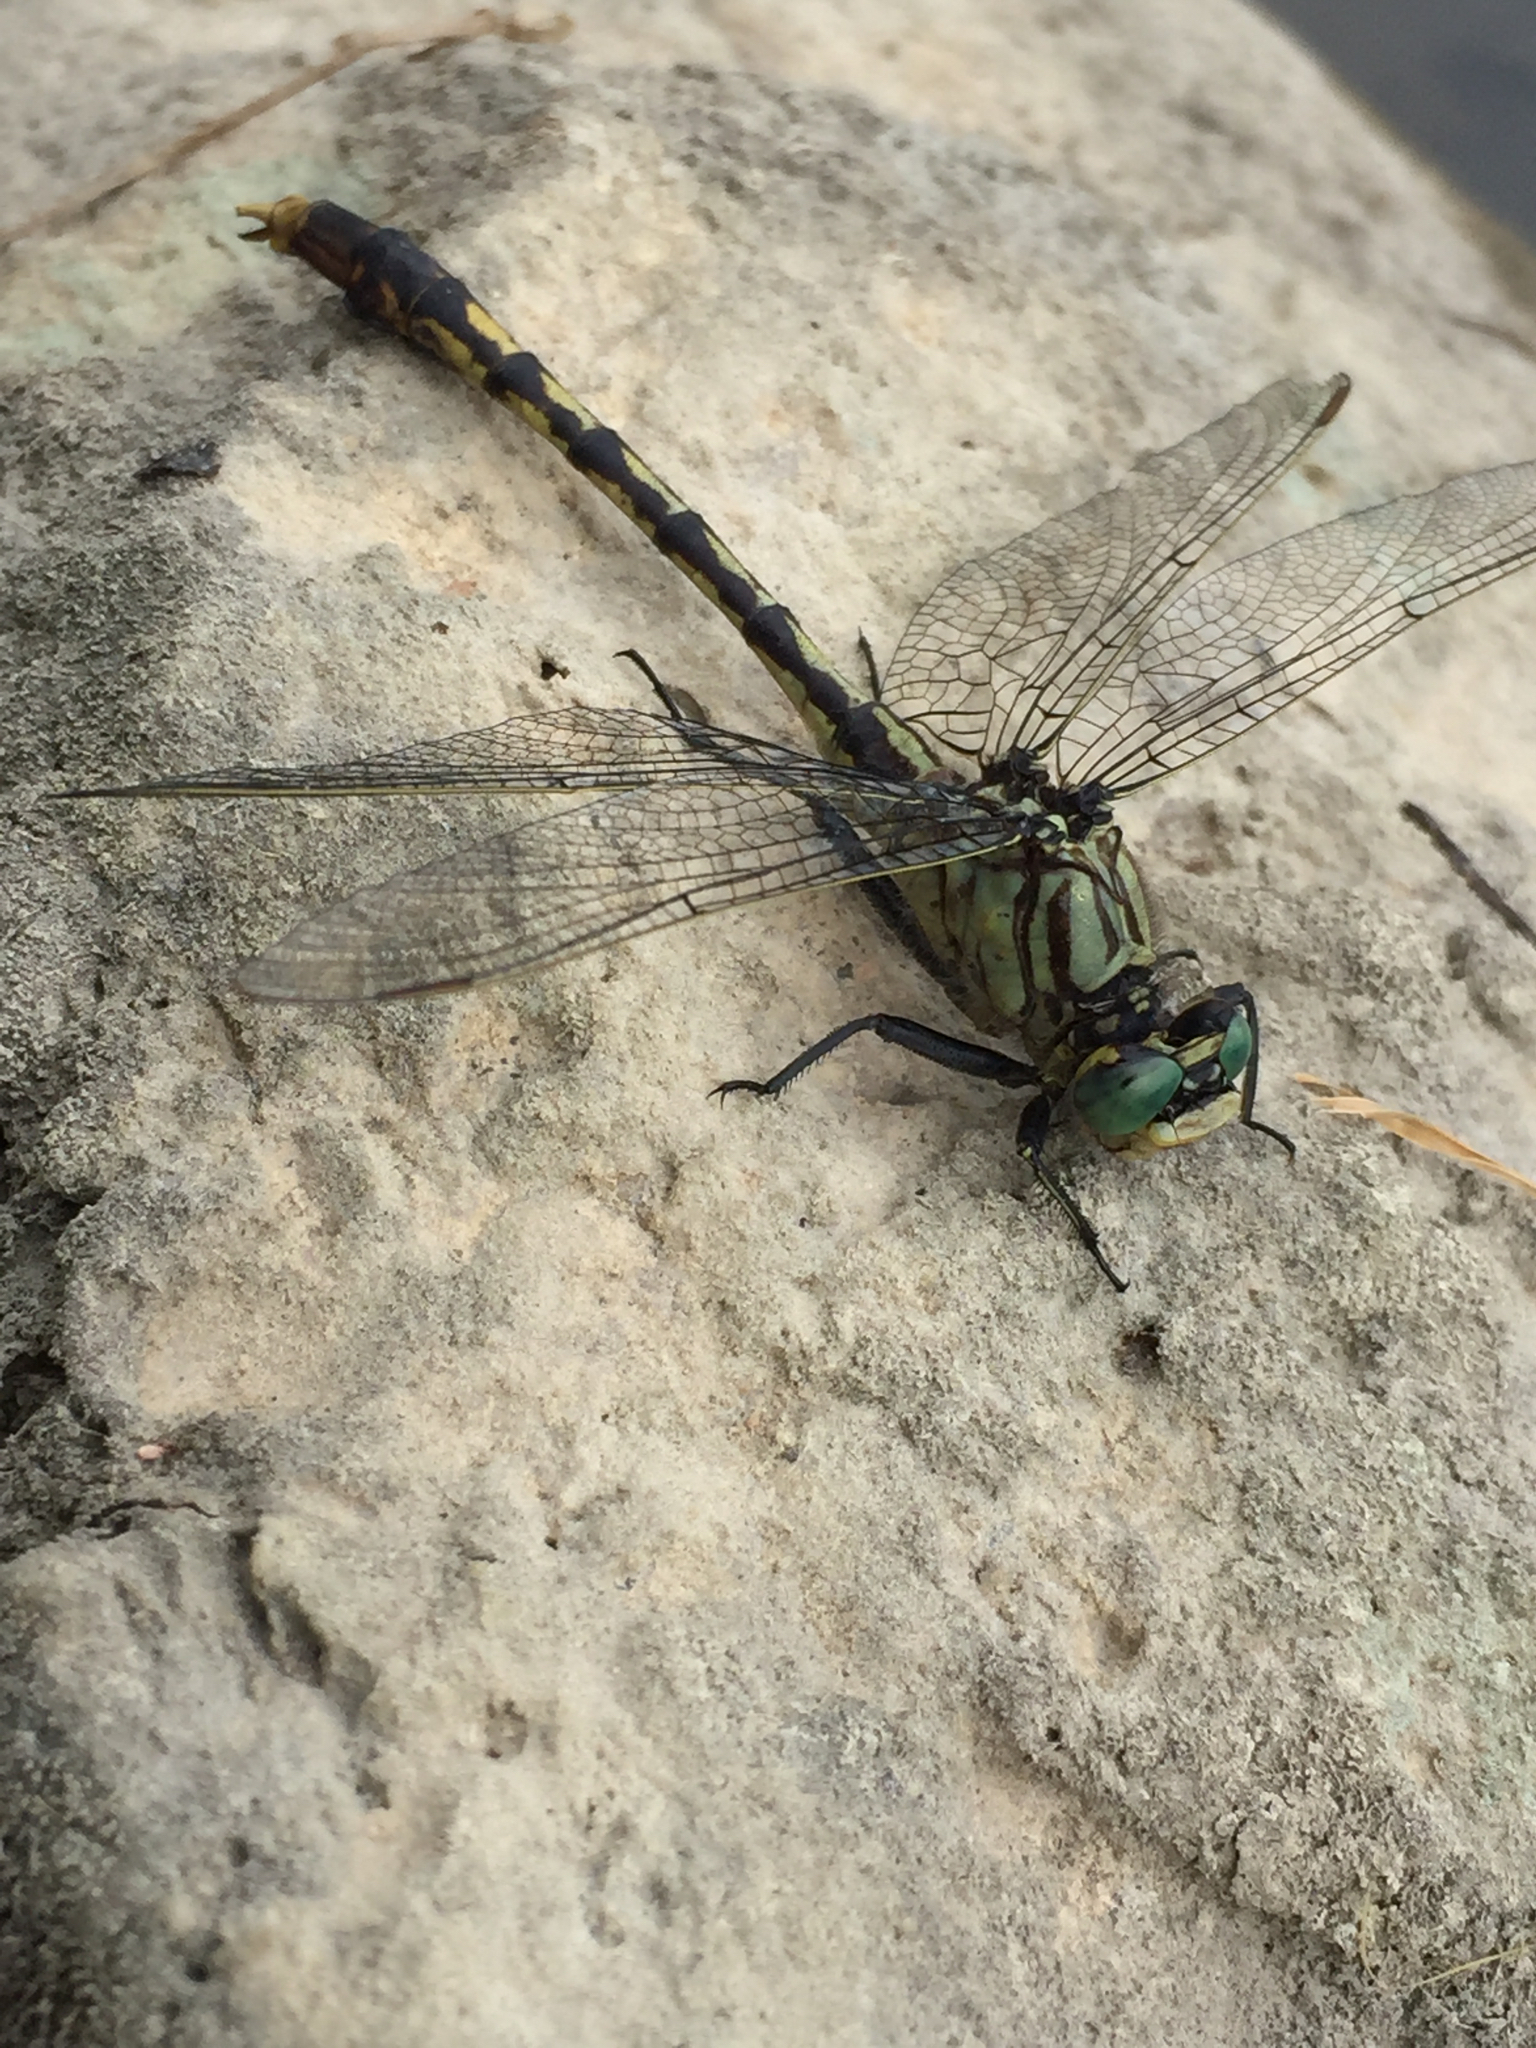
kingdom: Animalia
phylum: Arthropoda
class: Insecta
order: Odonata
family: Gomphidae
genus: Arigomphus
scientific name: Arigomphus villosipes
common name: Unicorn clubtail
